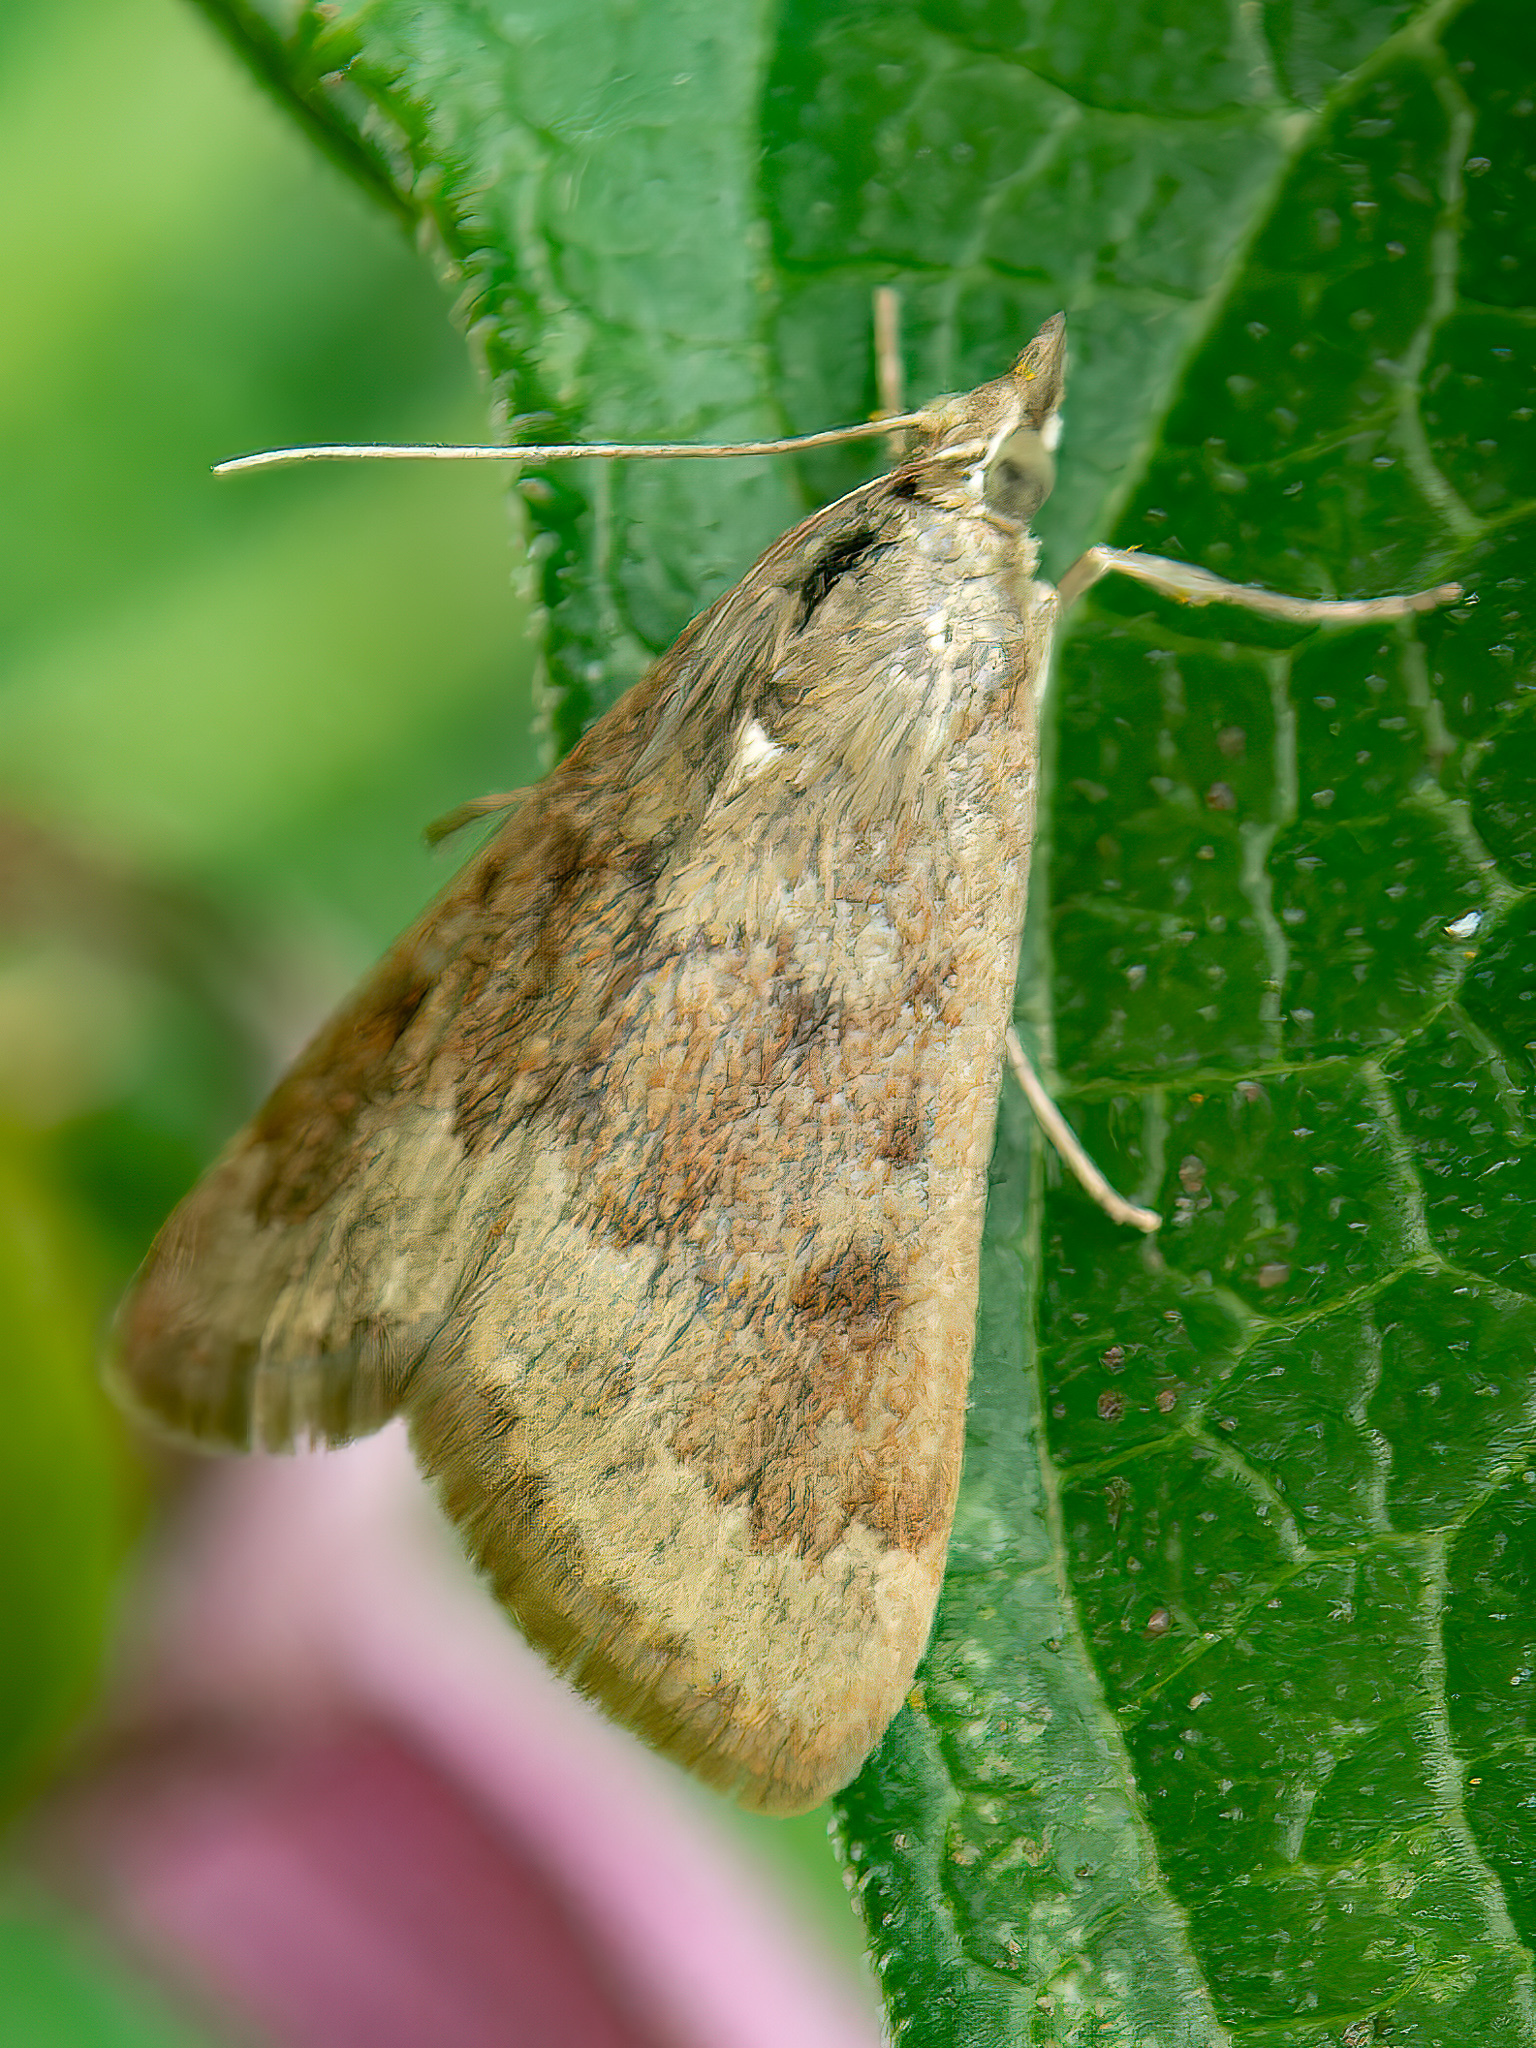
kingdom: Animalia
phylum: Arthropoda
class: Insecta
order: Lepidoptera
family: Crambidae
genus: Achyra
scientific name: Achyra rantalis
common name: Garden webworm
